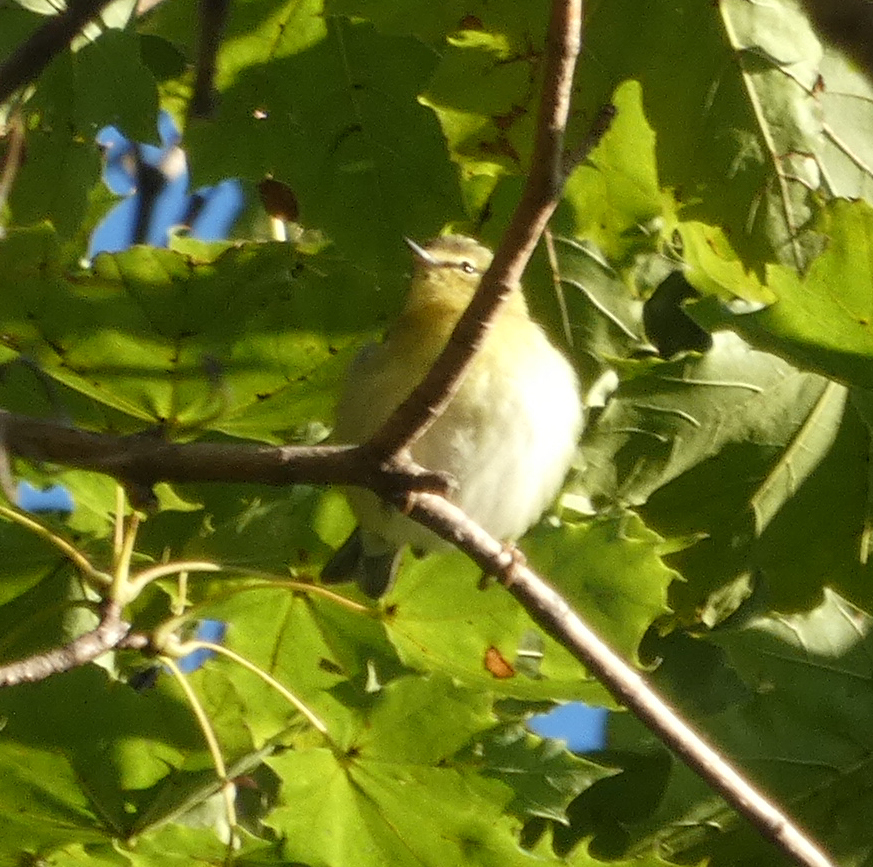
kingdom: Animalia
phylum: Chordata
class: Aves
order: Passeriformes
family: Parulidae
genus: Leiothlypis
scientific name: Leiothlypis peregrina
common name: Tennessee warbler
